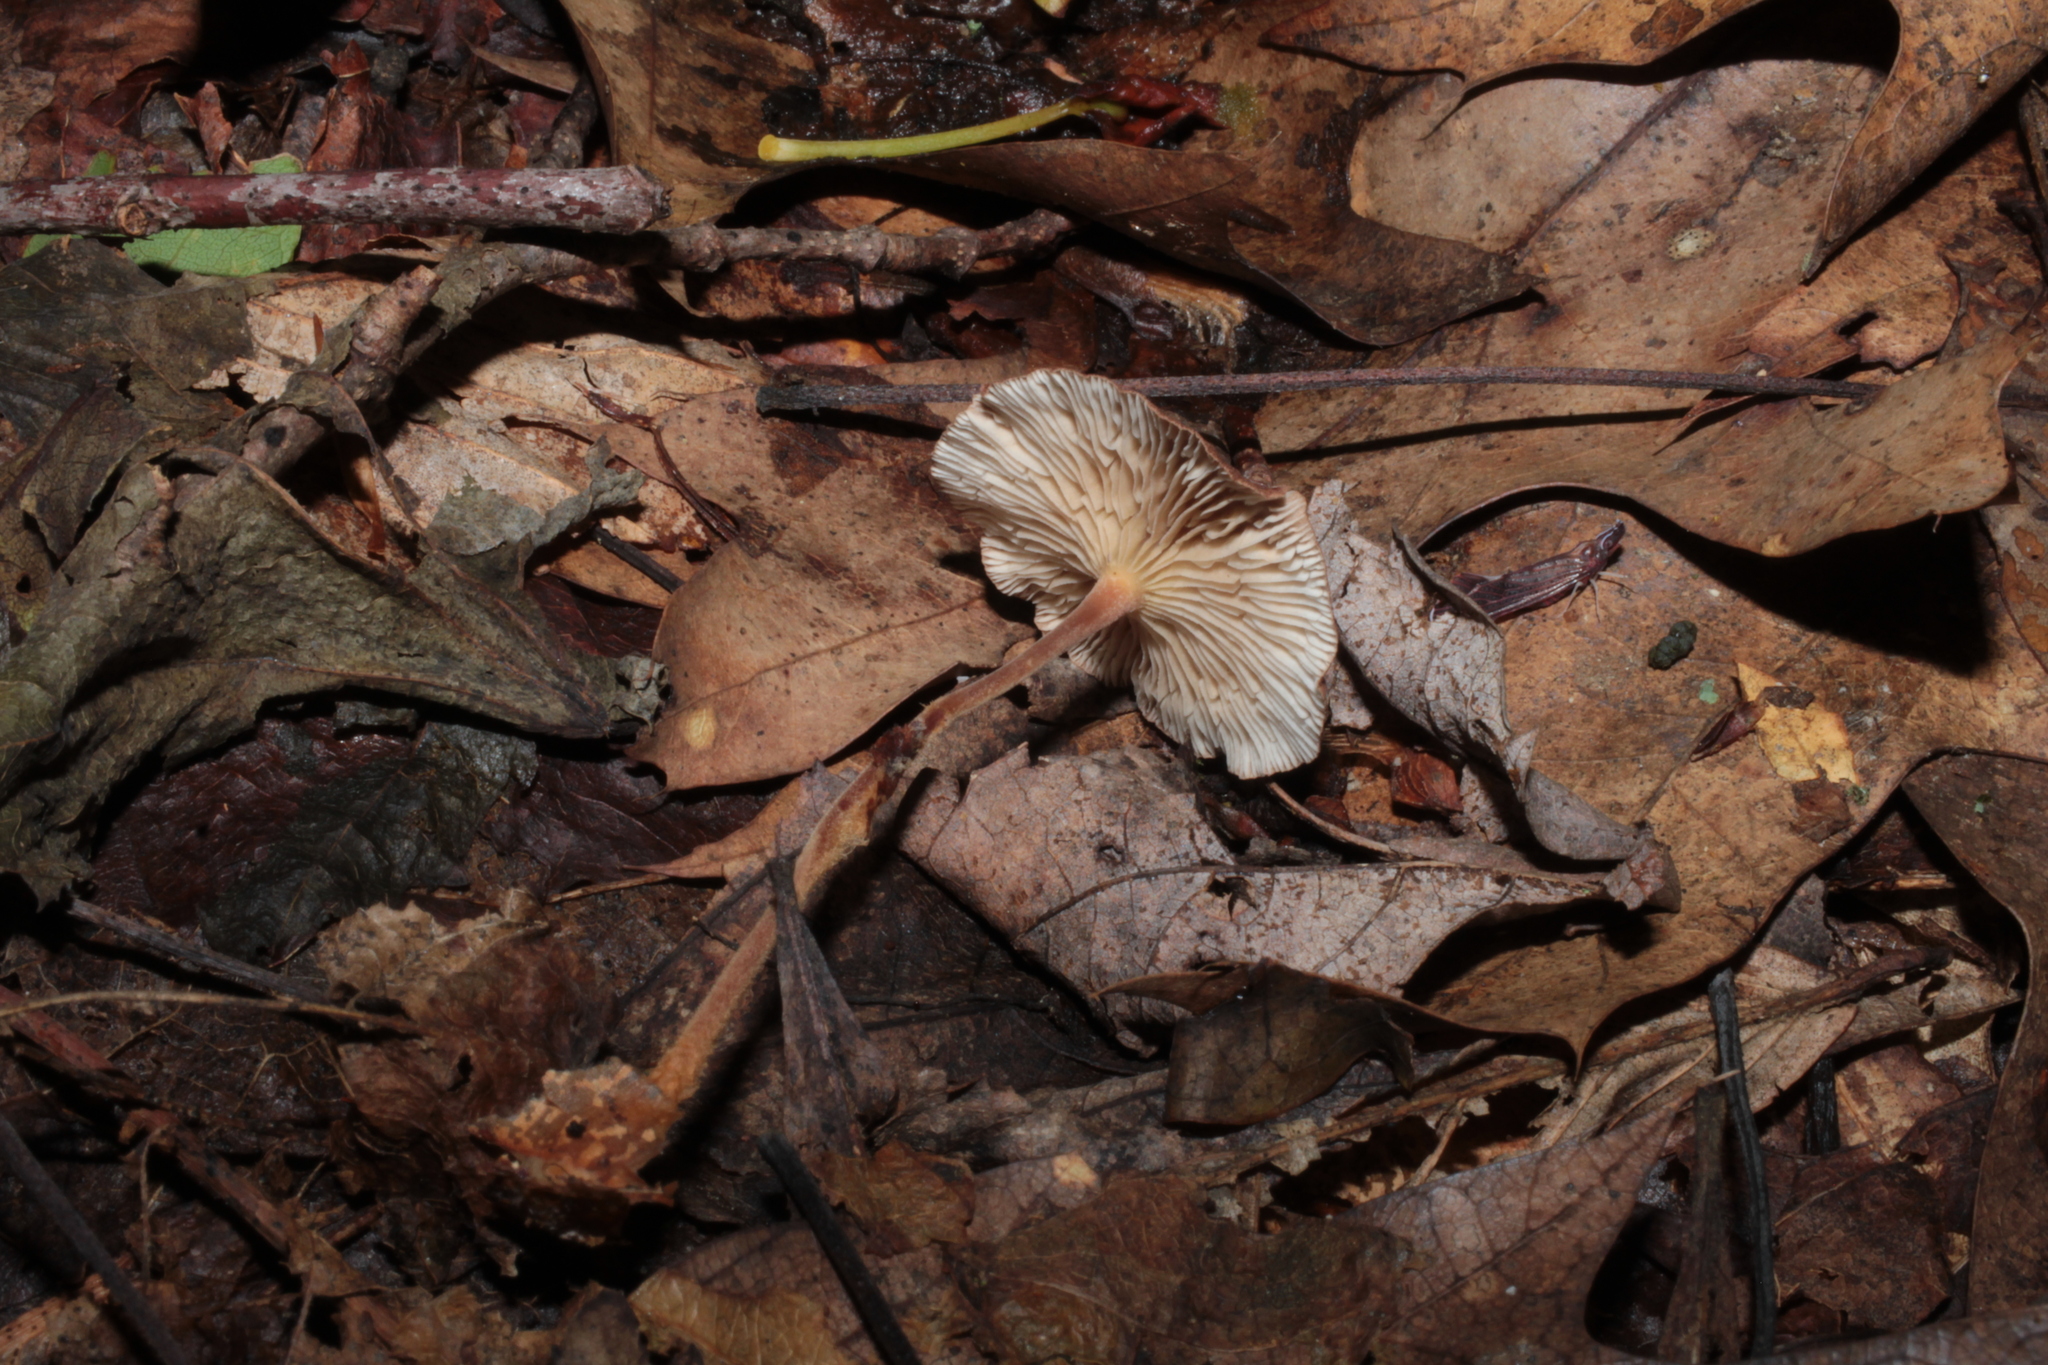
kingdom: Fungi
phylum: Basidiomycota
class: Agaricomycetes
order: Agaricales
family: Omphalotaceae
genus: Collybiopsis
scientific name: Collybiopsis subnuda
